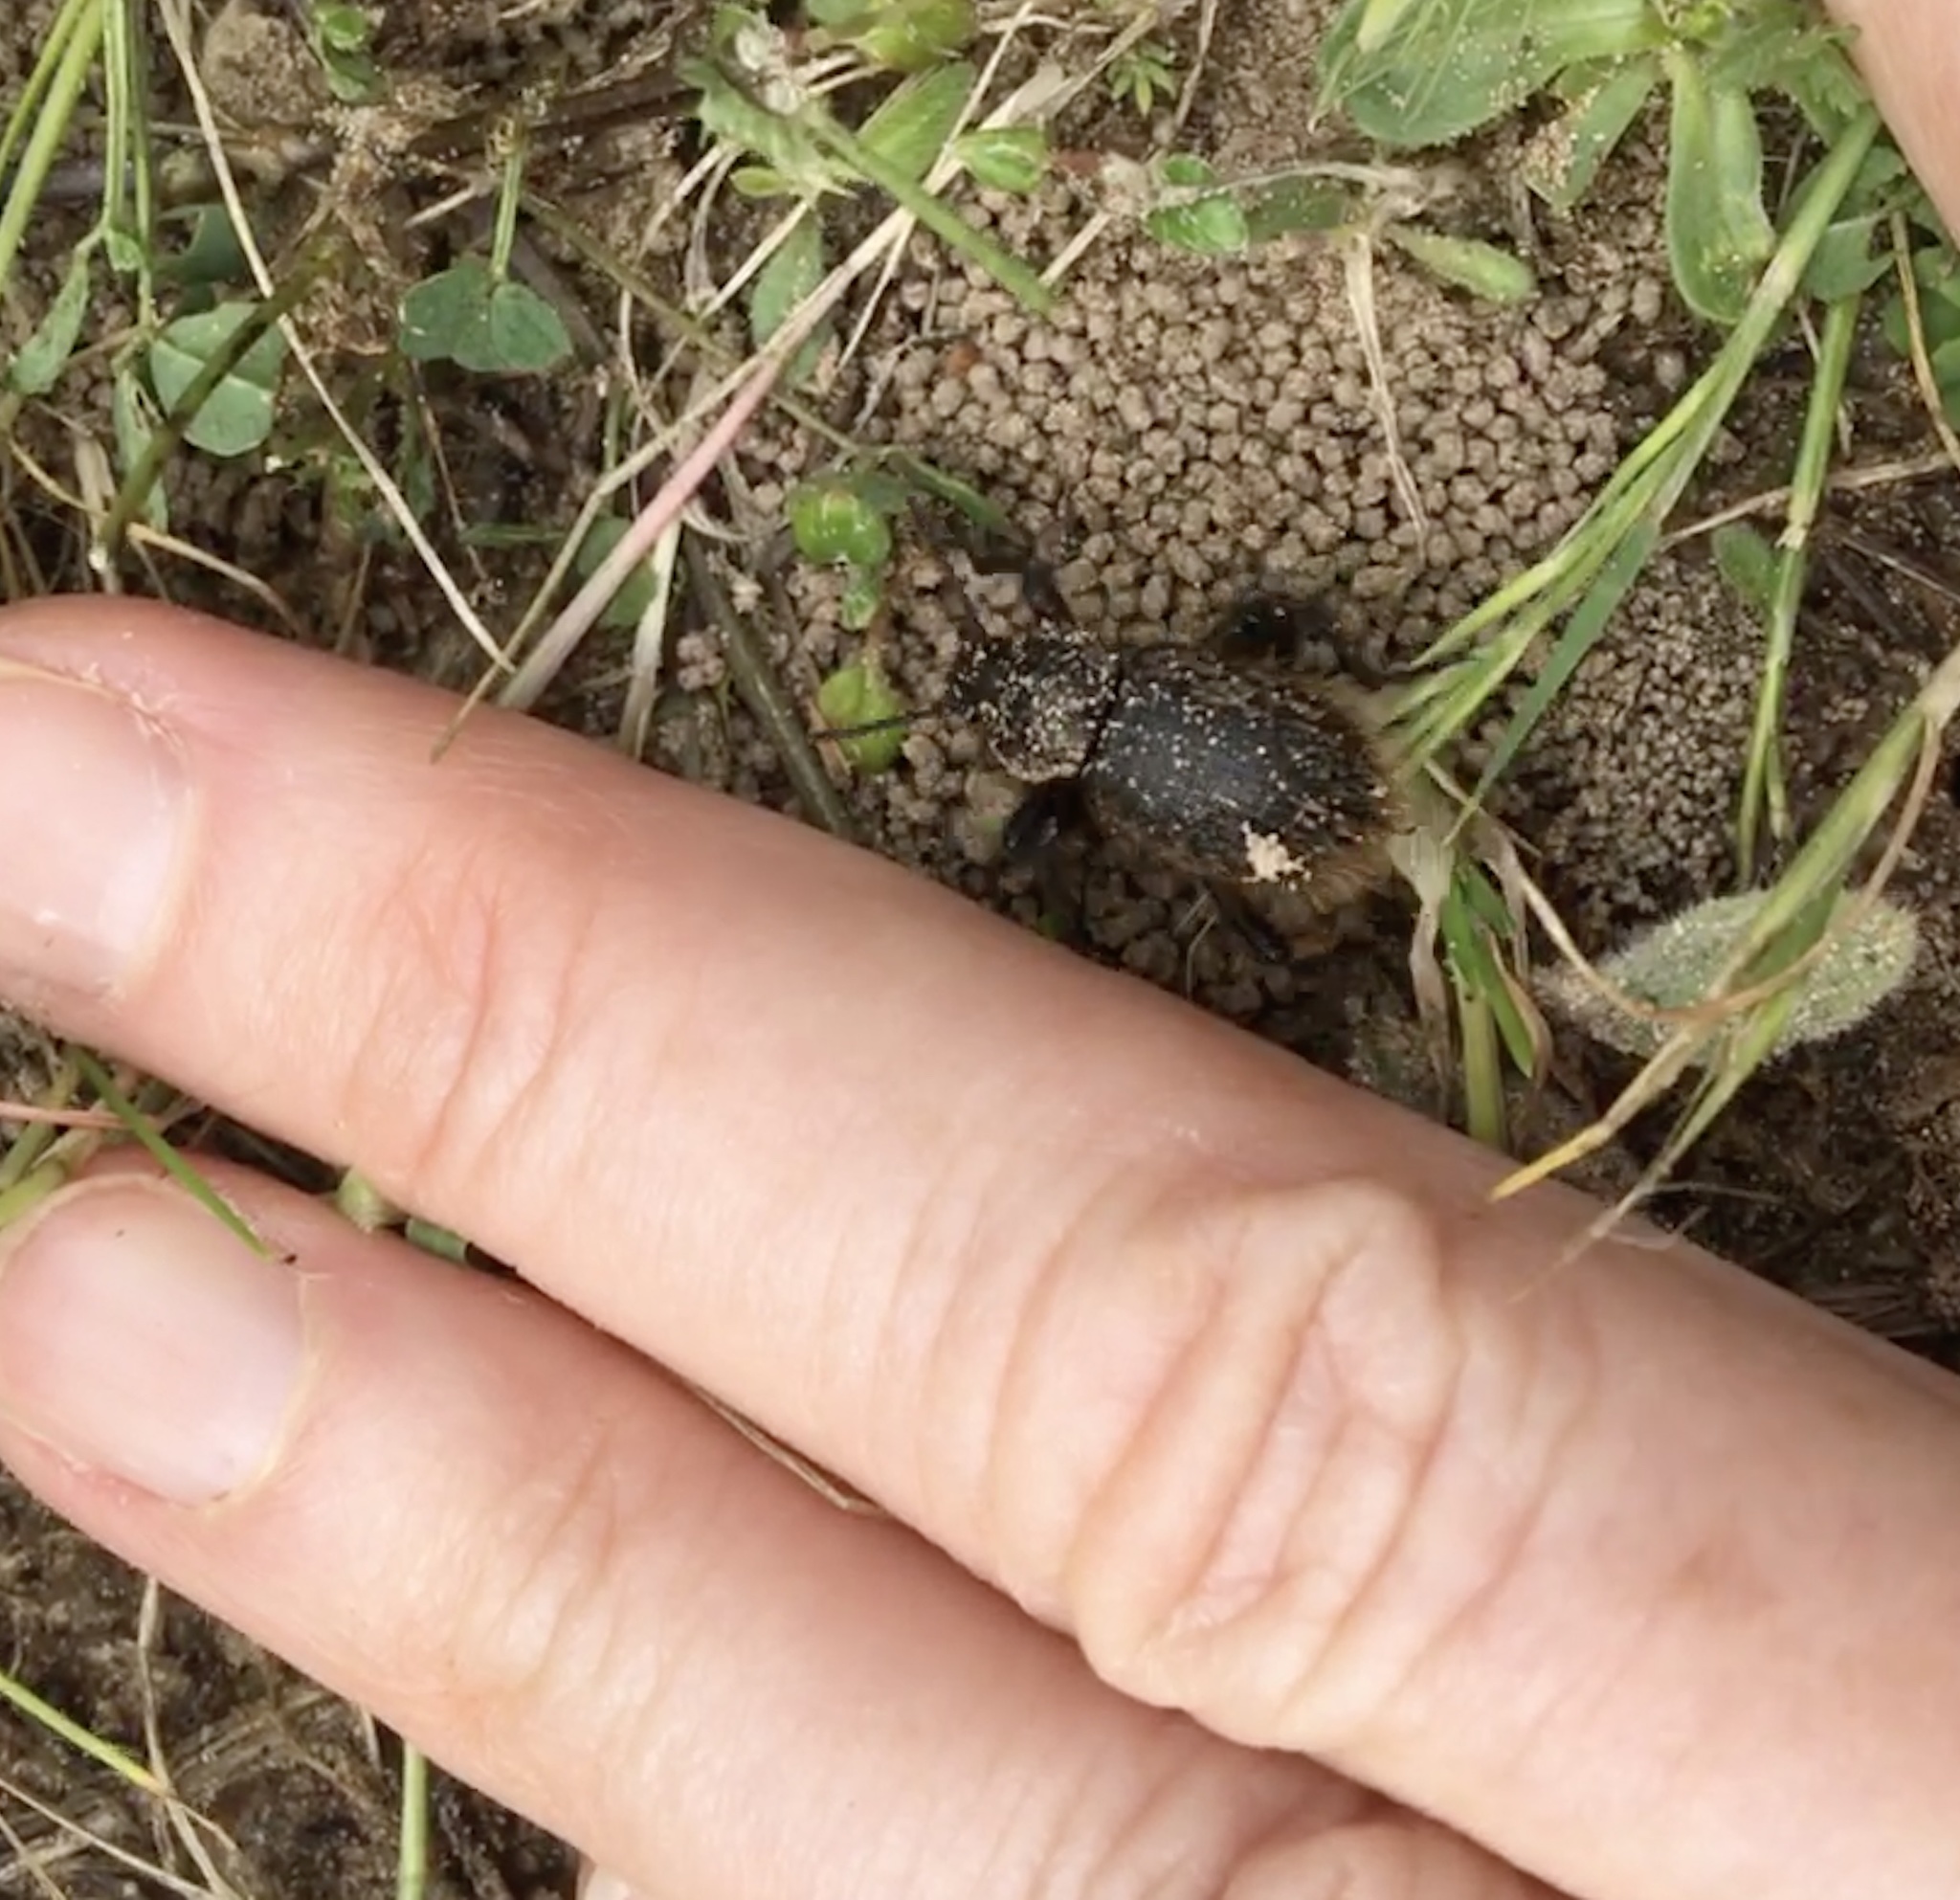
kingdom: Animalia
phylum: Arthropoda
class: Insecta
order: Coleoptera
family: Tenebrionidae
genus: Eleodes
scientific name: Eleodes osculans
